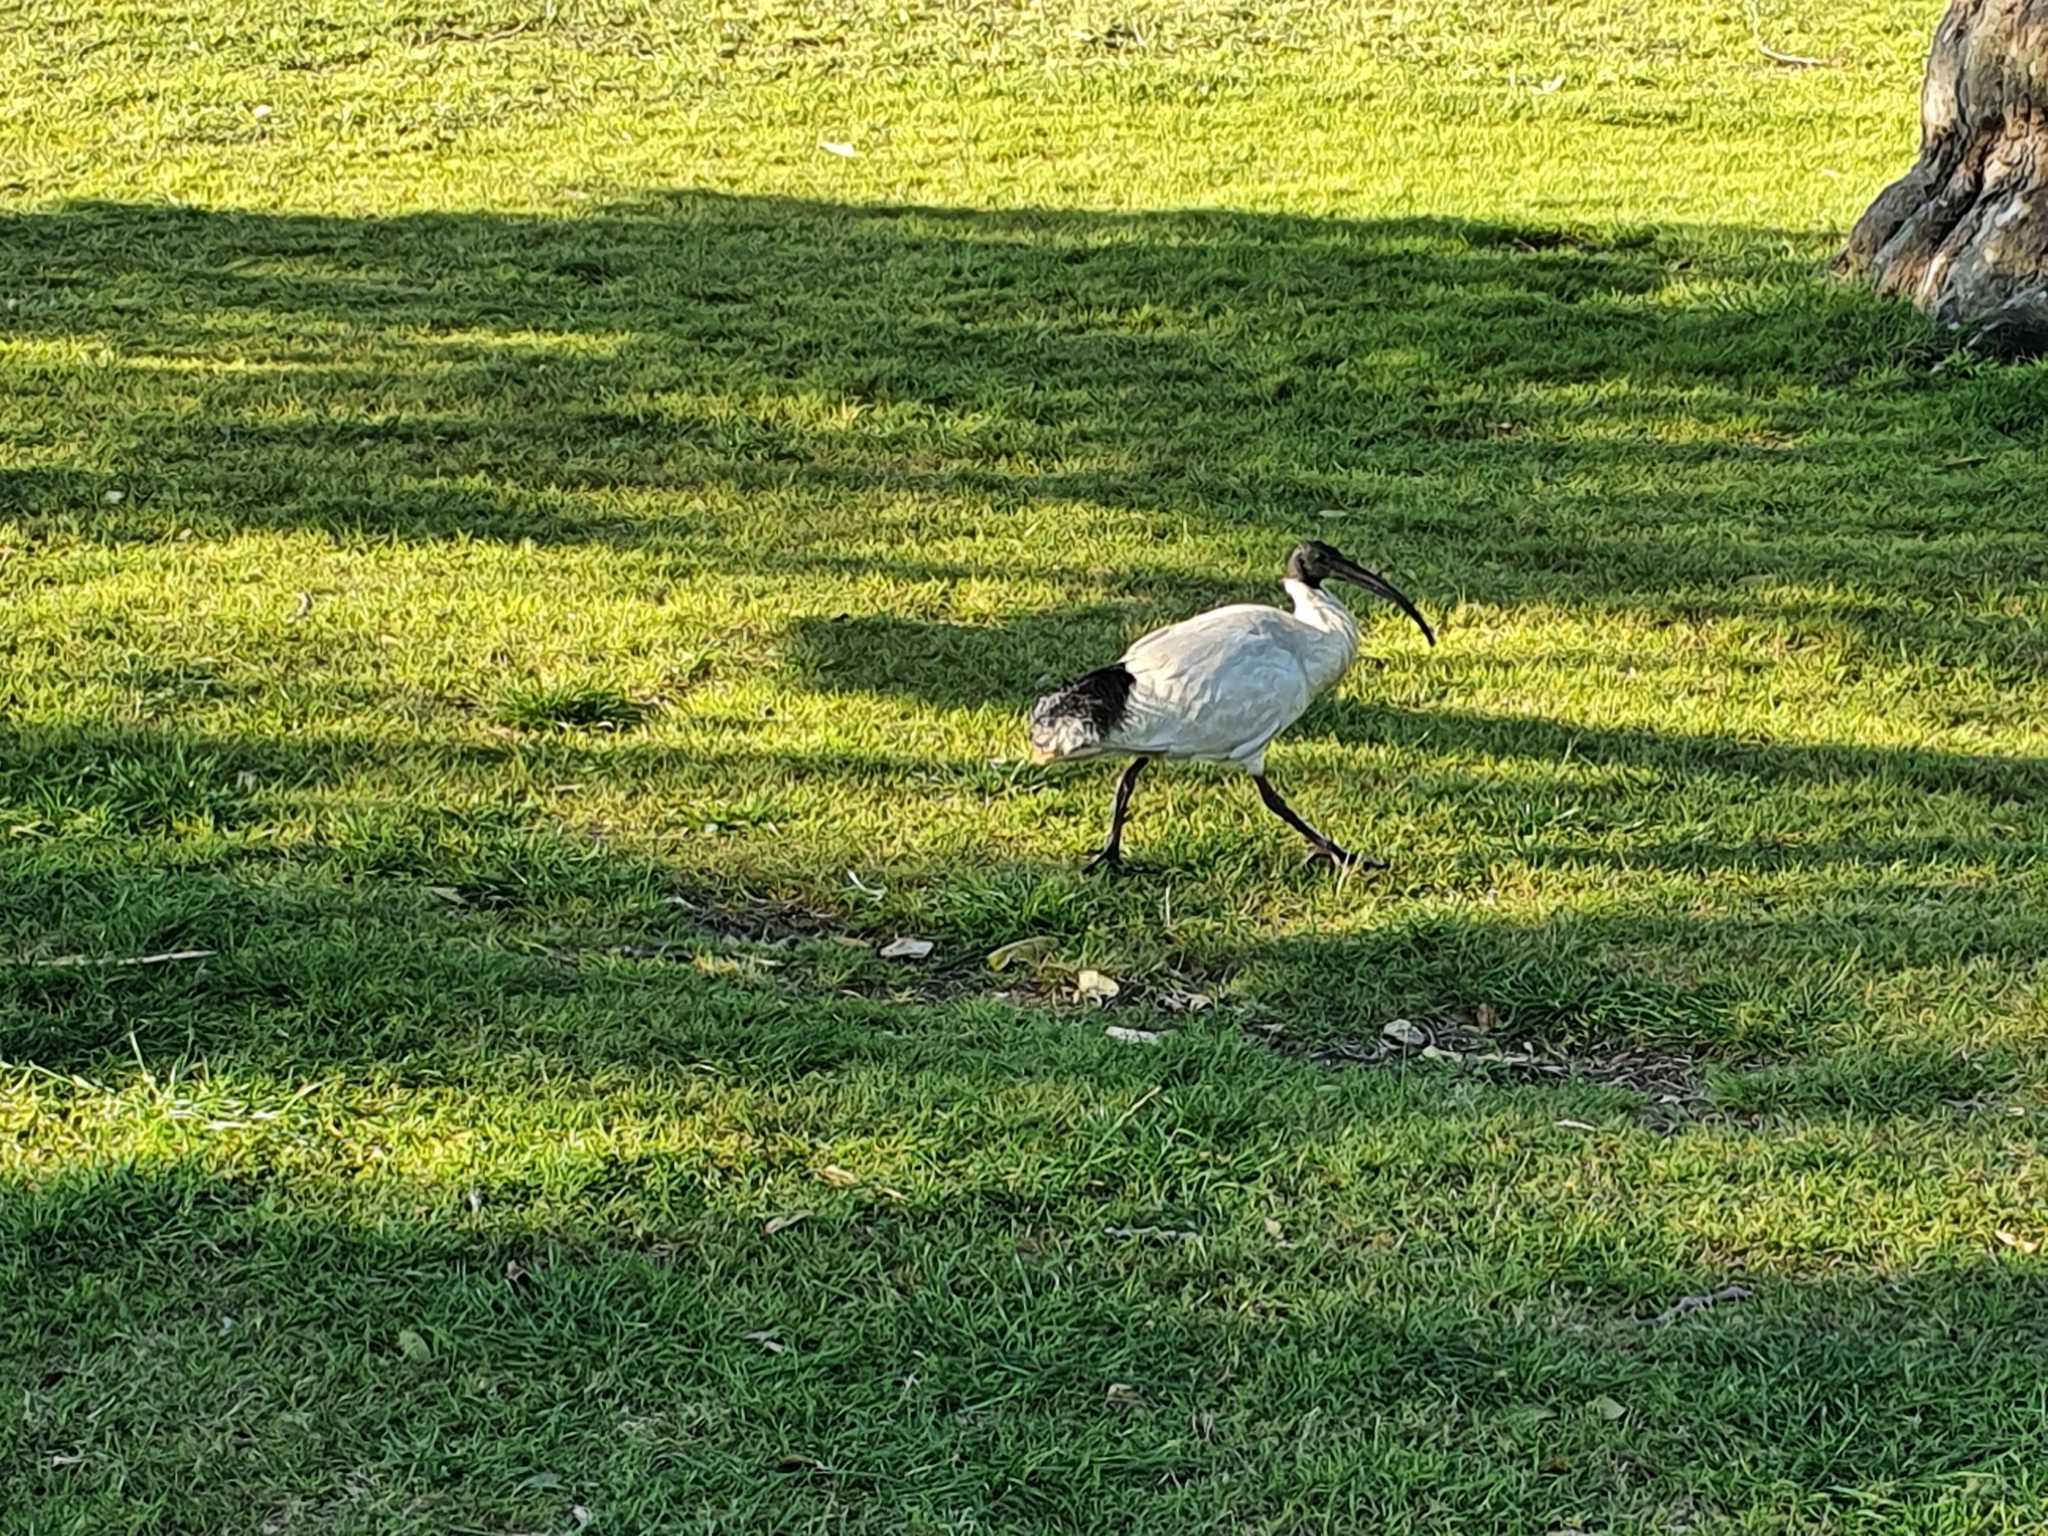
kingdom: Animalia
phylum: Chordata
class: Aves
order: Pelecaniformes
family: Threskiornithidae
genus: Threskiornis
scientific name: Threskiornis molucca
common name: Australian white ibis
